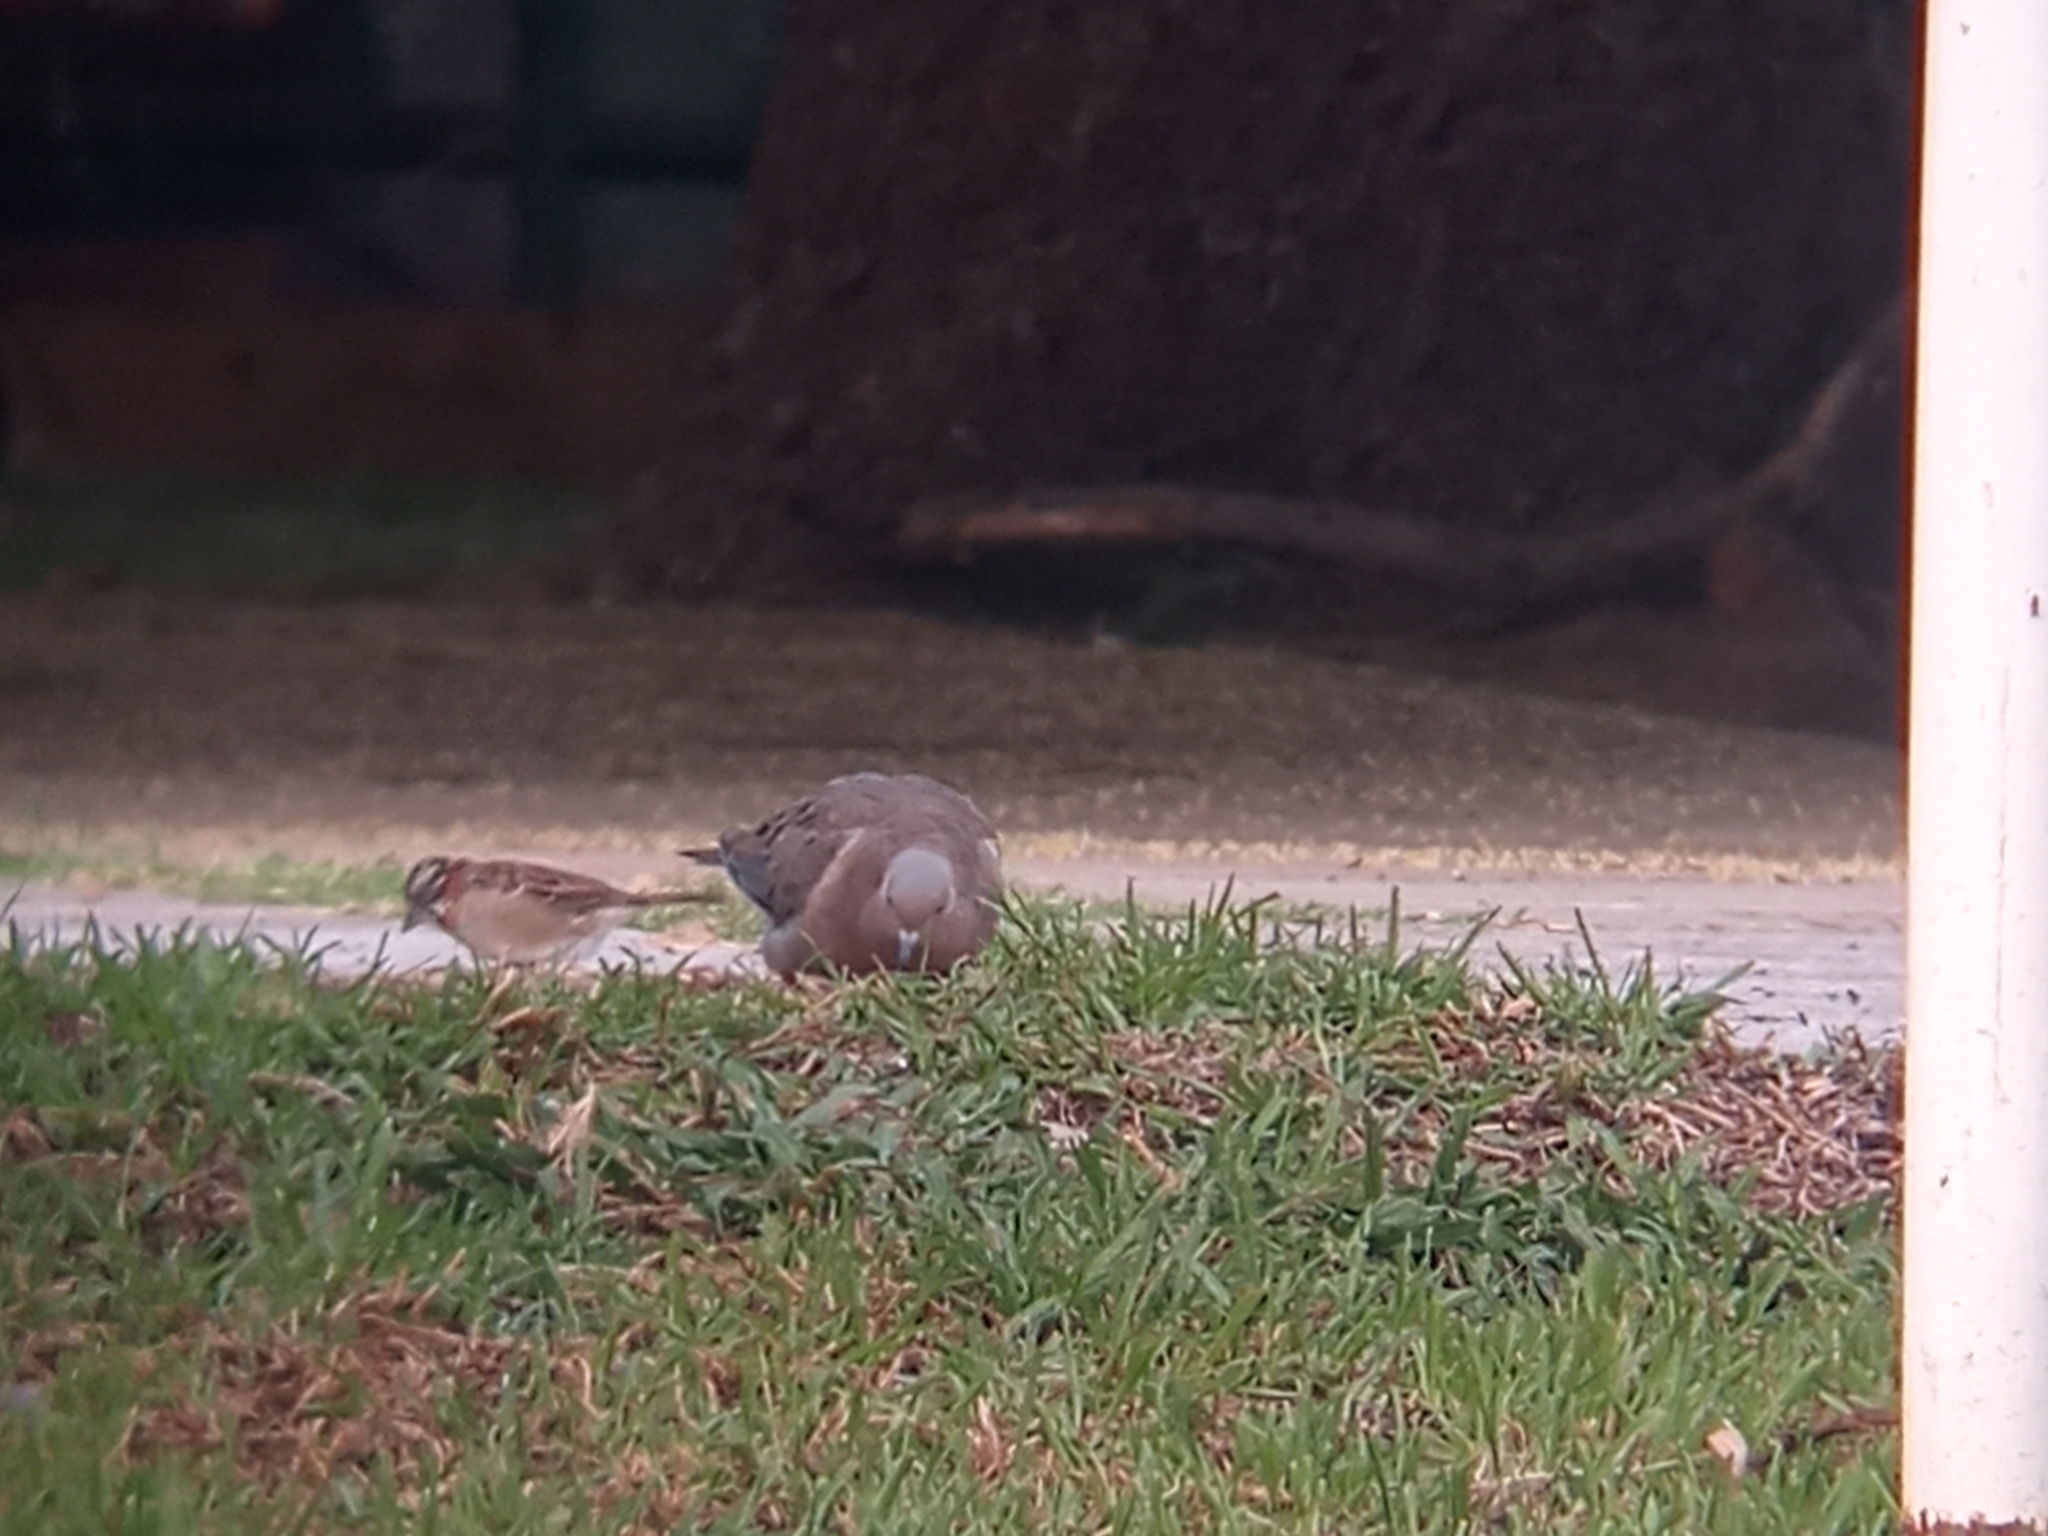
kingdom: Animalia
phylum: Chordata
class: Aves
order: Columbiformes
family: Columbidae
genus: Zenaida
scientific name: Zenaida auriculata
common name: Eared dove
